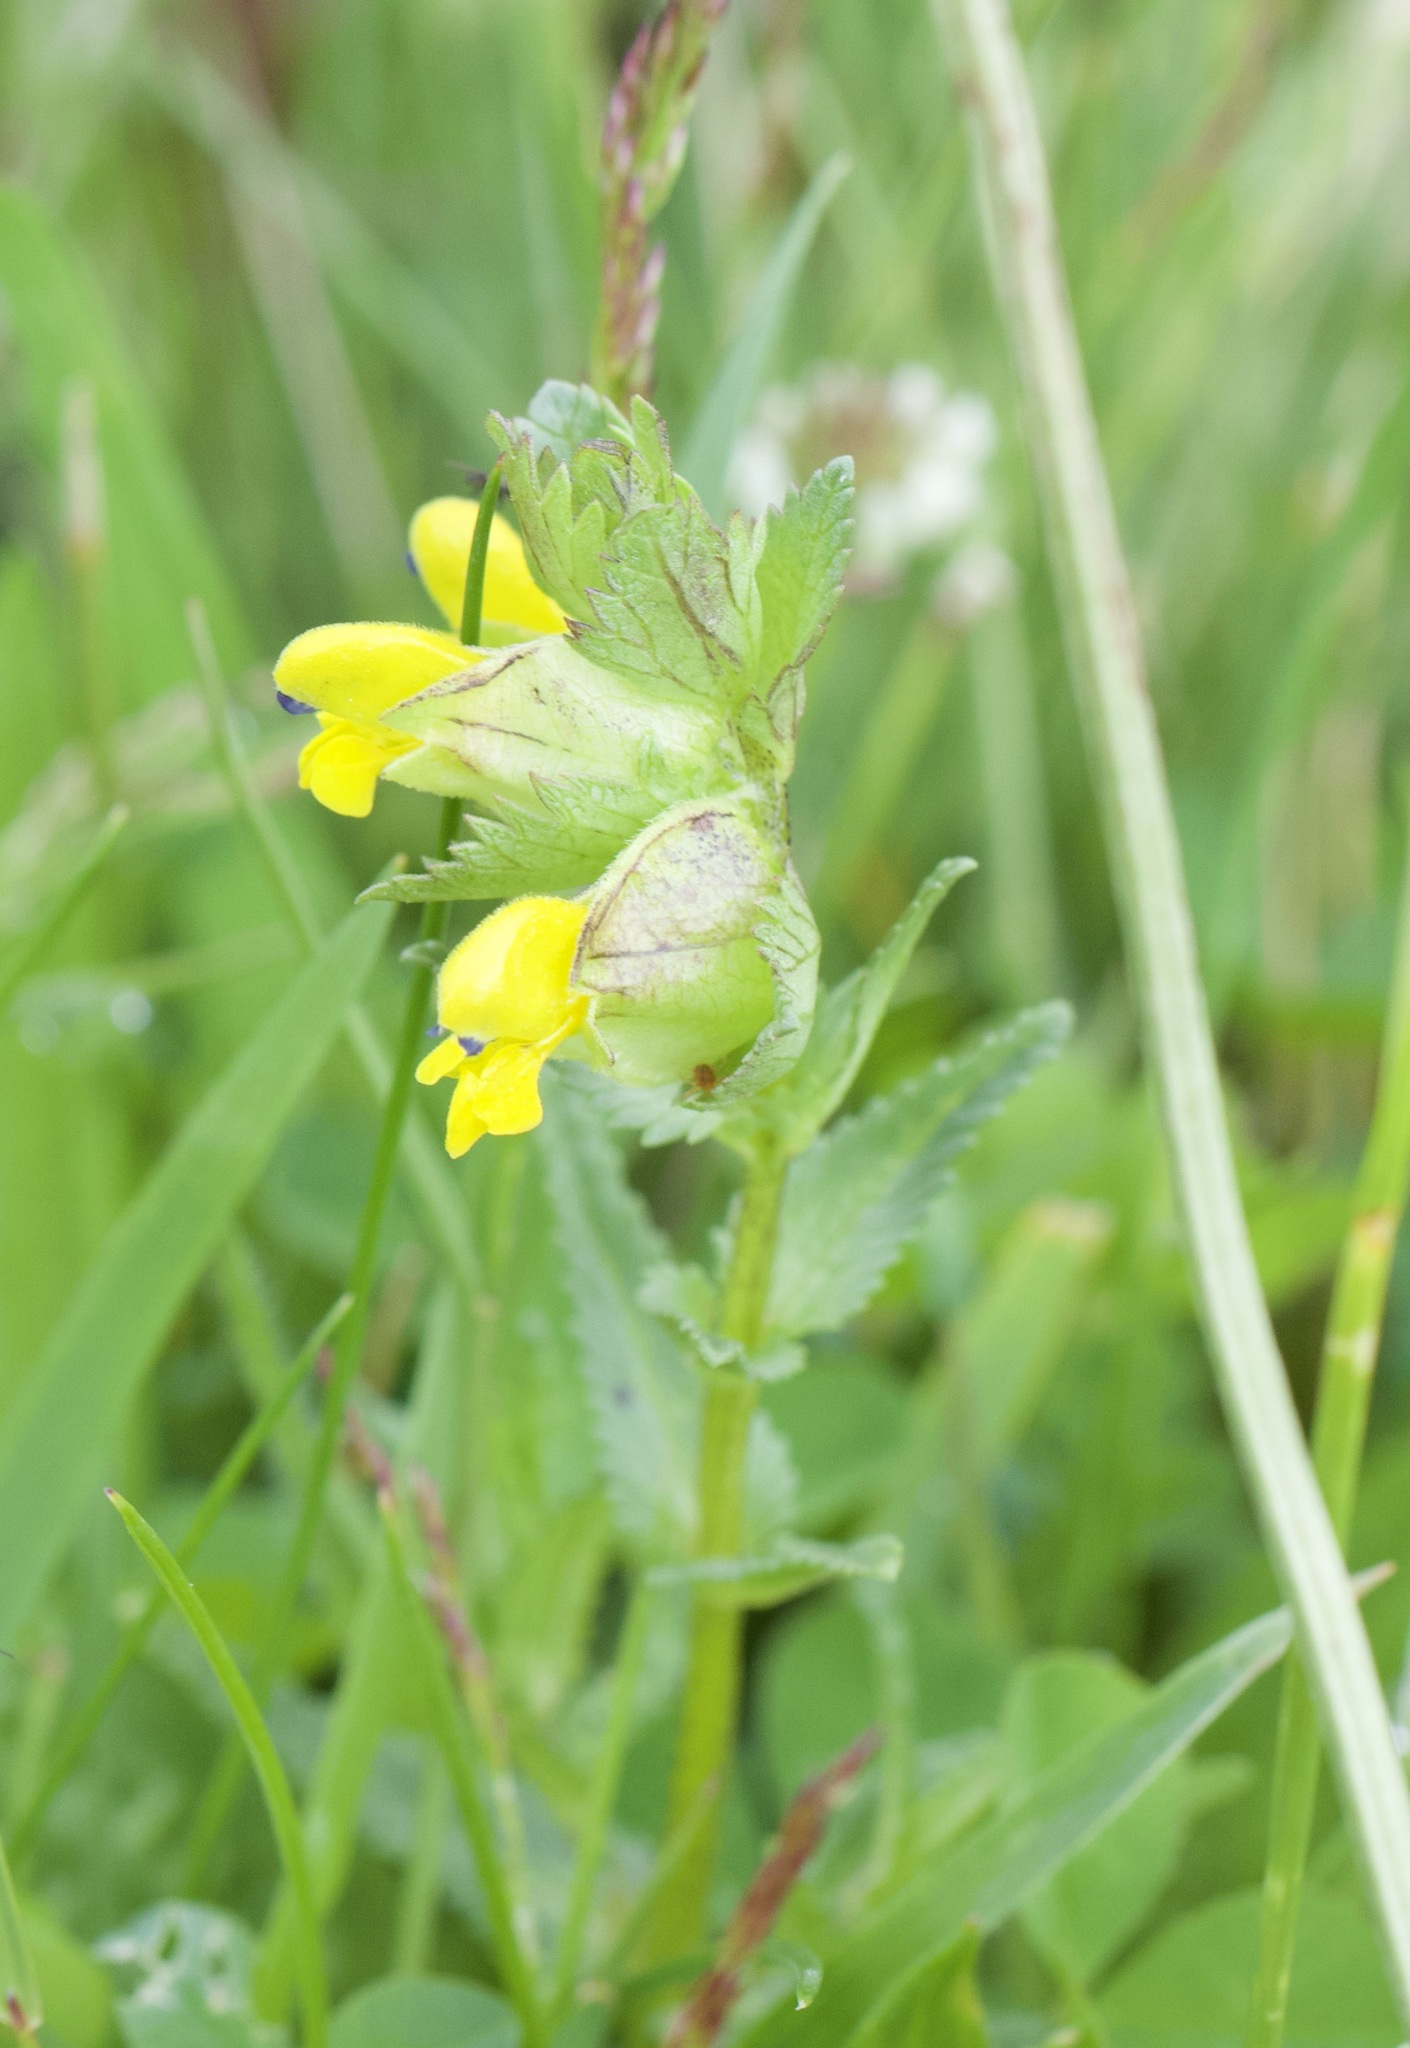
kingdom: Plantae
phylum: Tracheophyta
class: Magnoliopsida
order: Lamiales
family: Orobanchaceae
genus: Rhinanthus
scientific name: Rhinanthus minor
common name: Yellow-rattle
